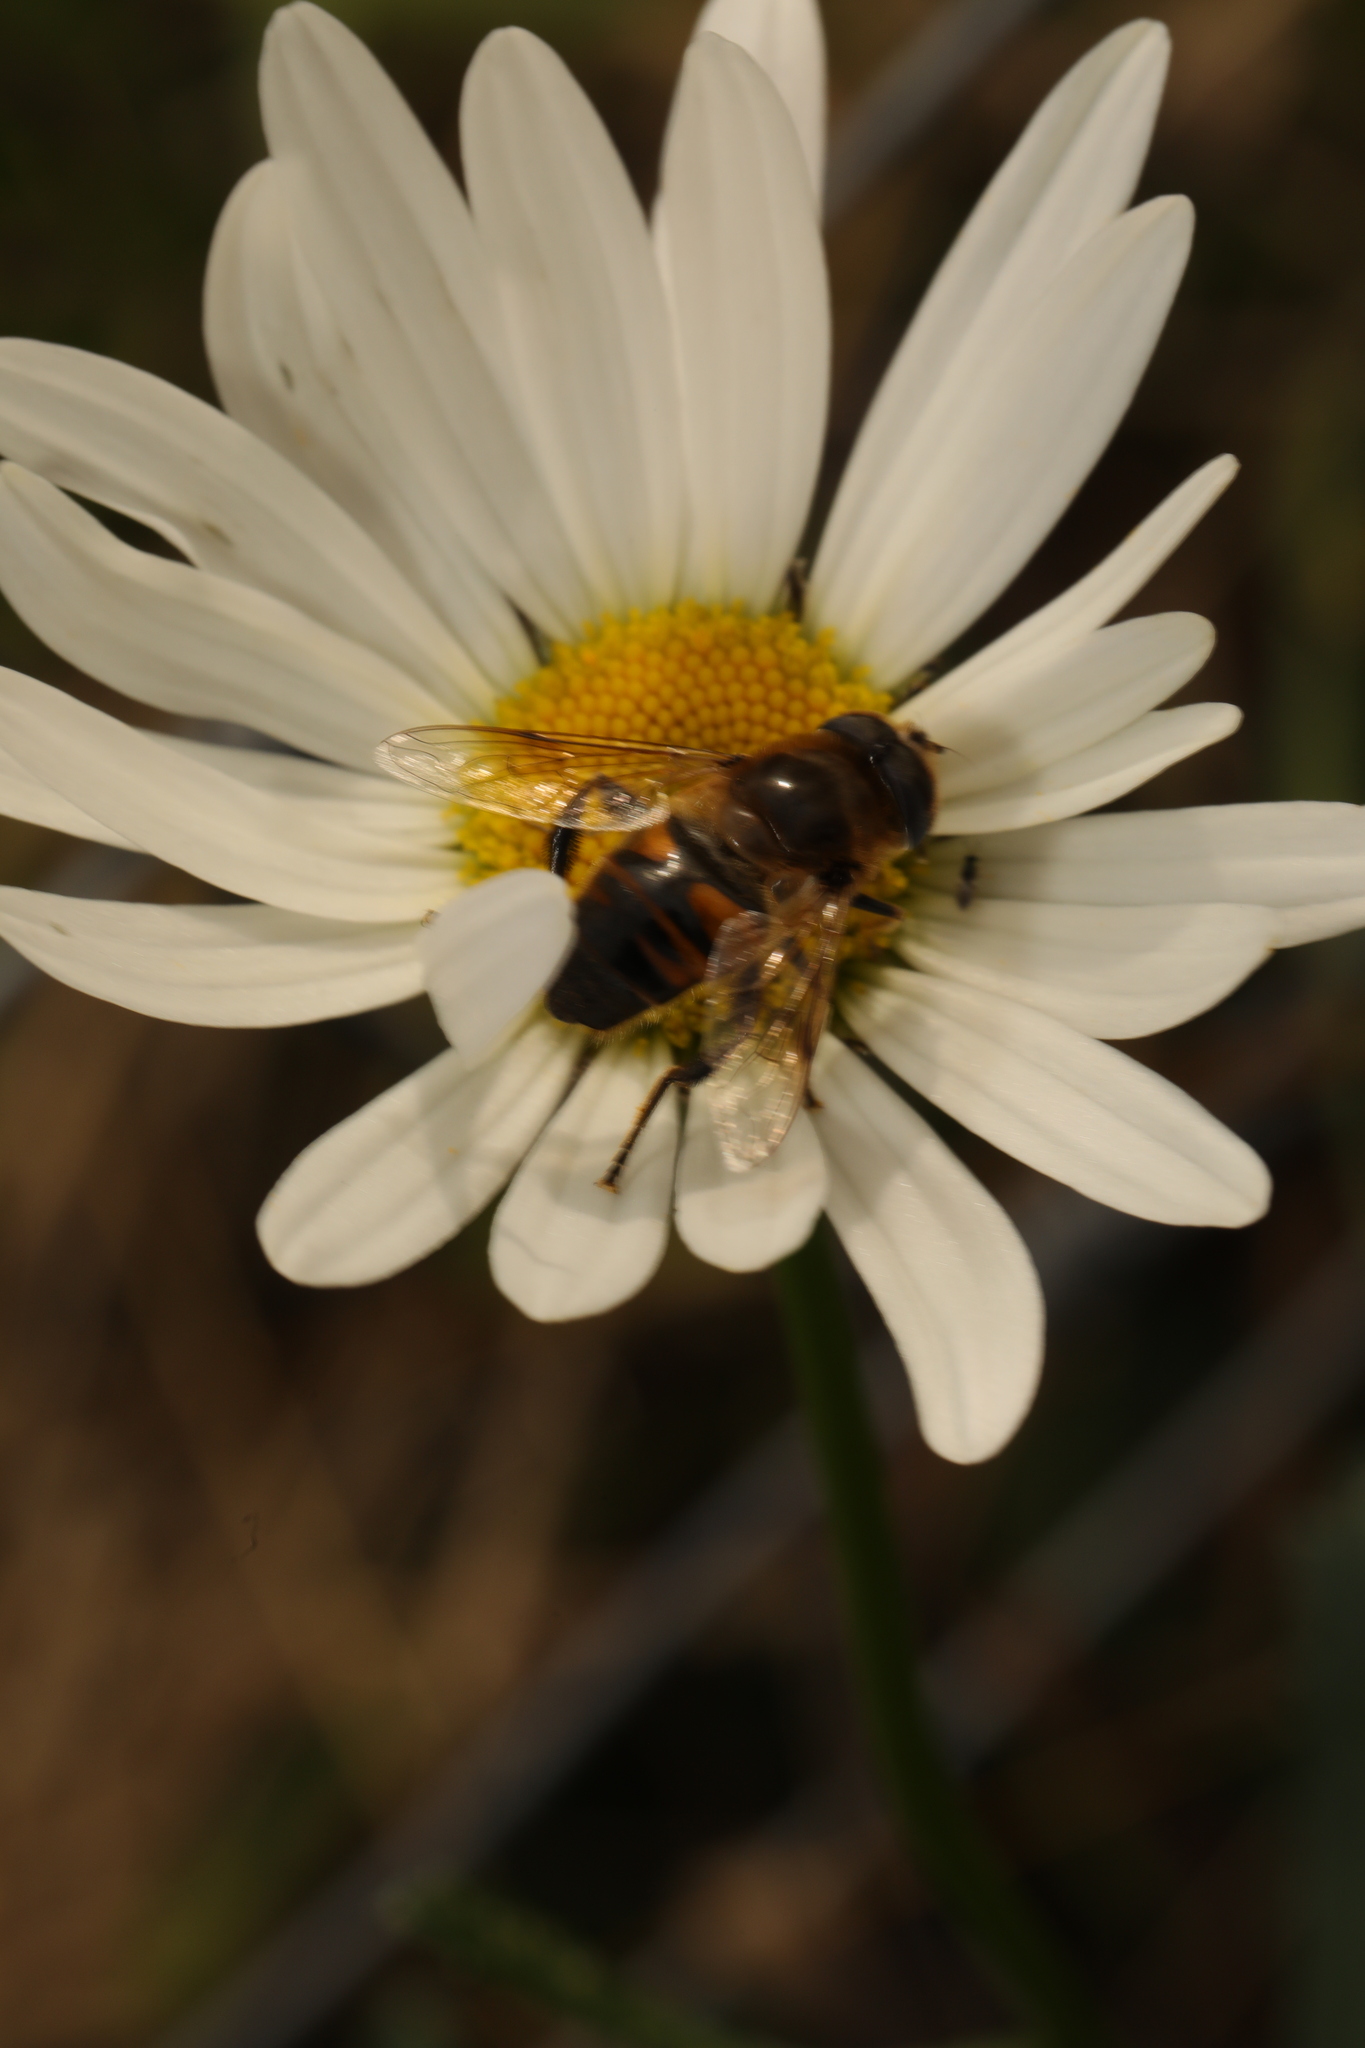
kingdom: Animalia
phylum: Arthropoda
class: Insecta
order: Diptera
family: Syrphidae
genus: Eristalis
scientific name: Eristalis tenax
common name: Drone fly
